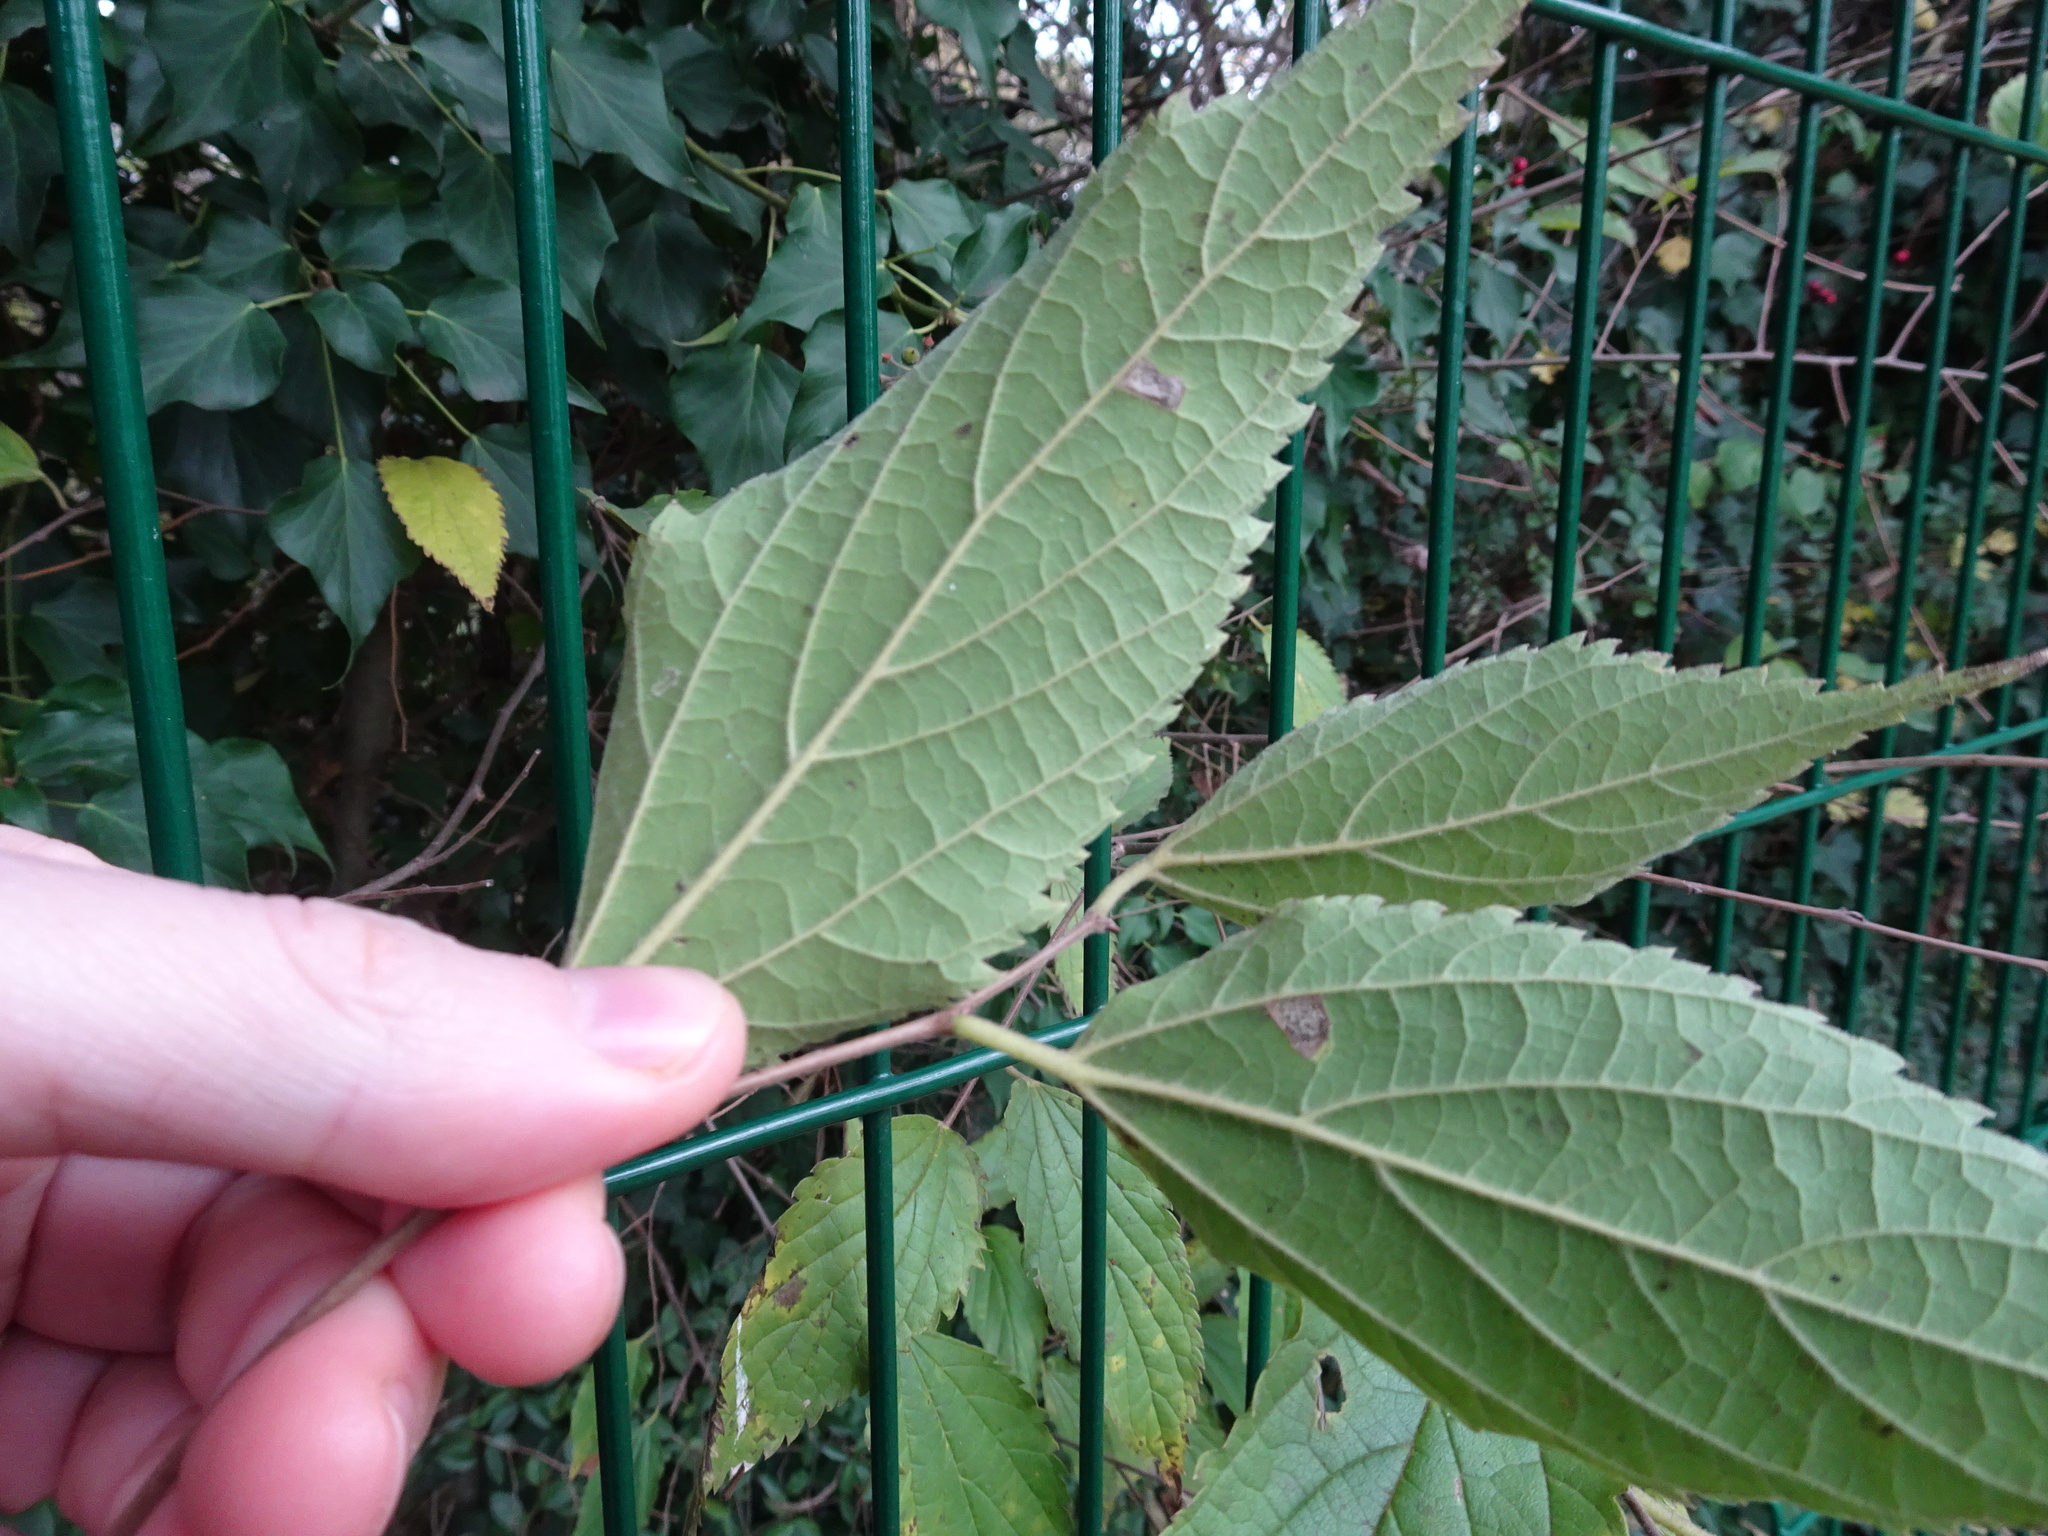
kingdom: Plantae
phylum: Tracheophyta
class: Magnoliopsida
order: Rosales
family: Cannabaceae
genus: Celtis
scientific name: Celtis australis
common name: European hackberry
